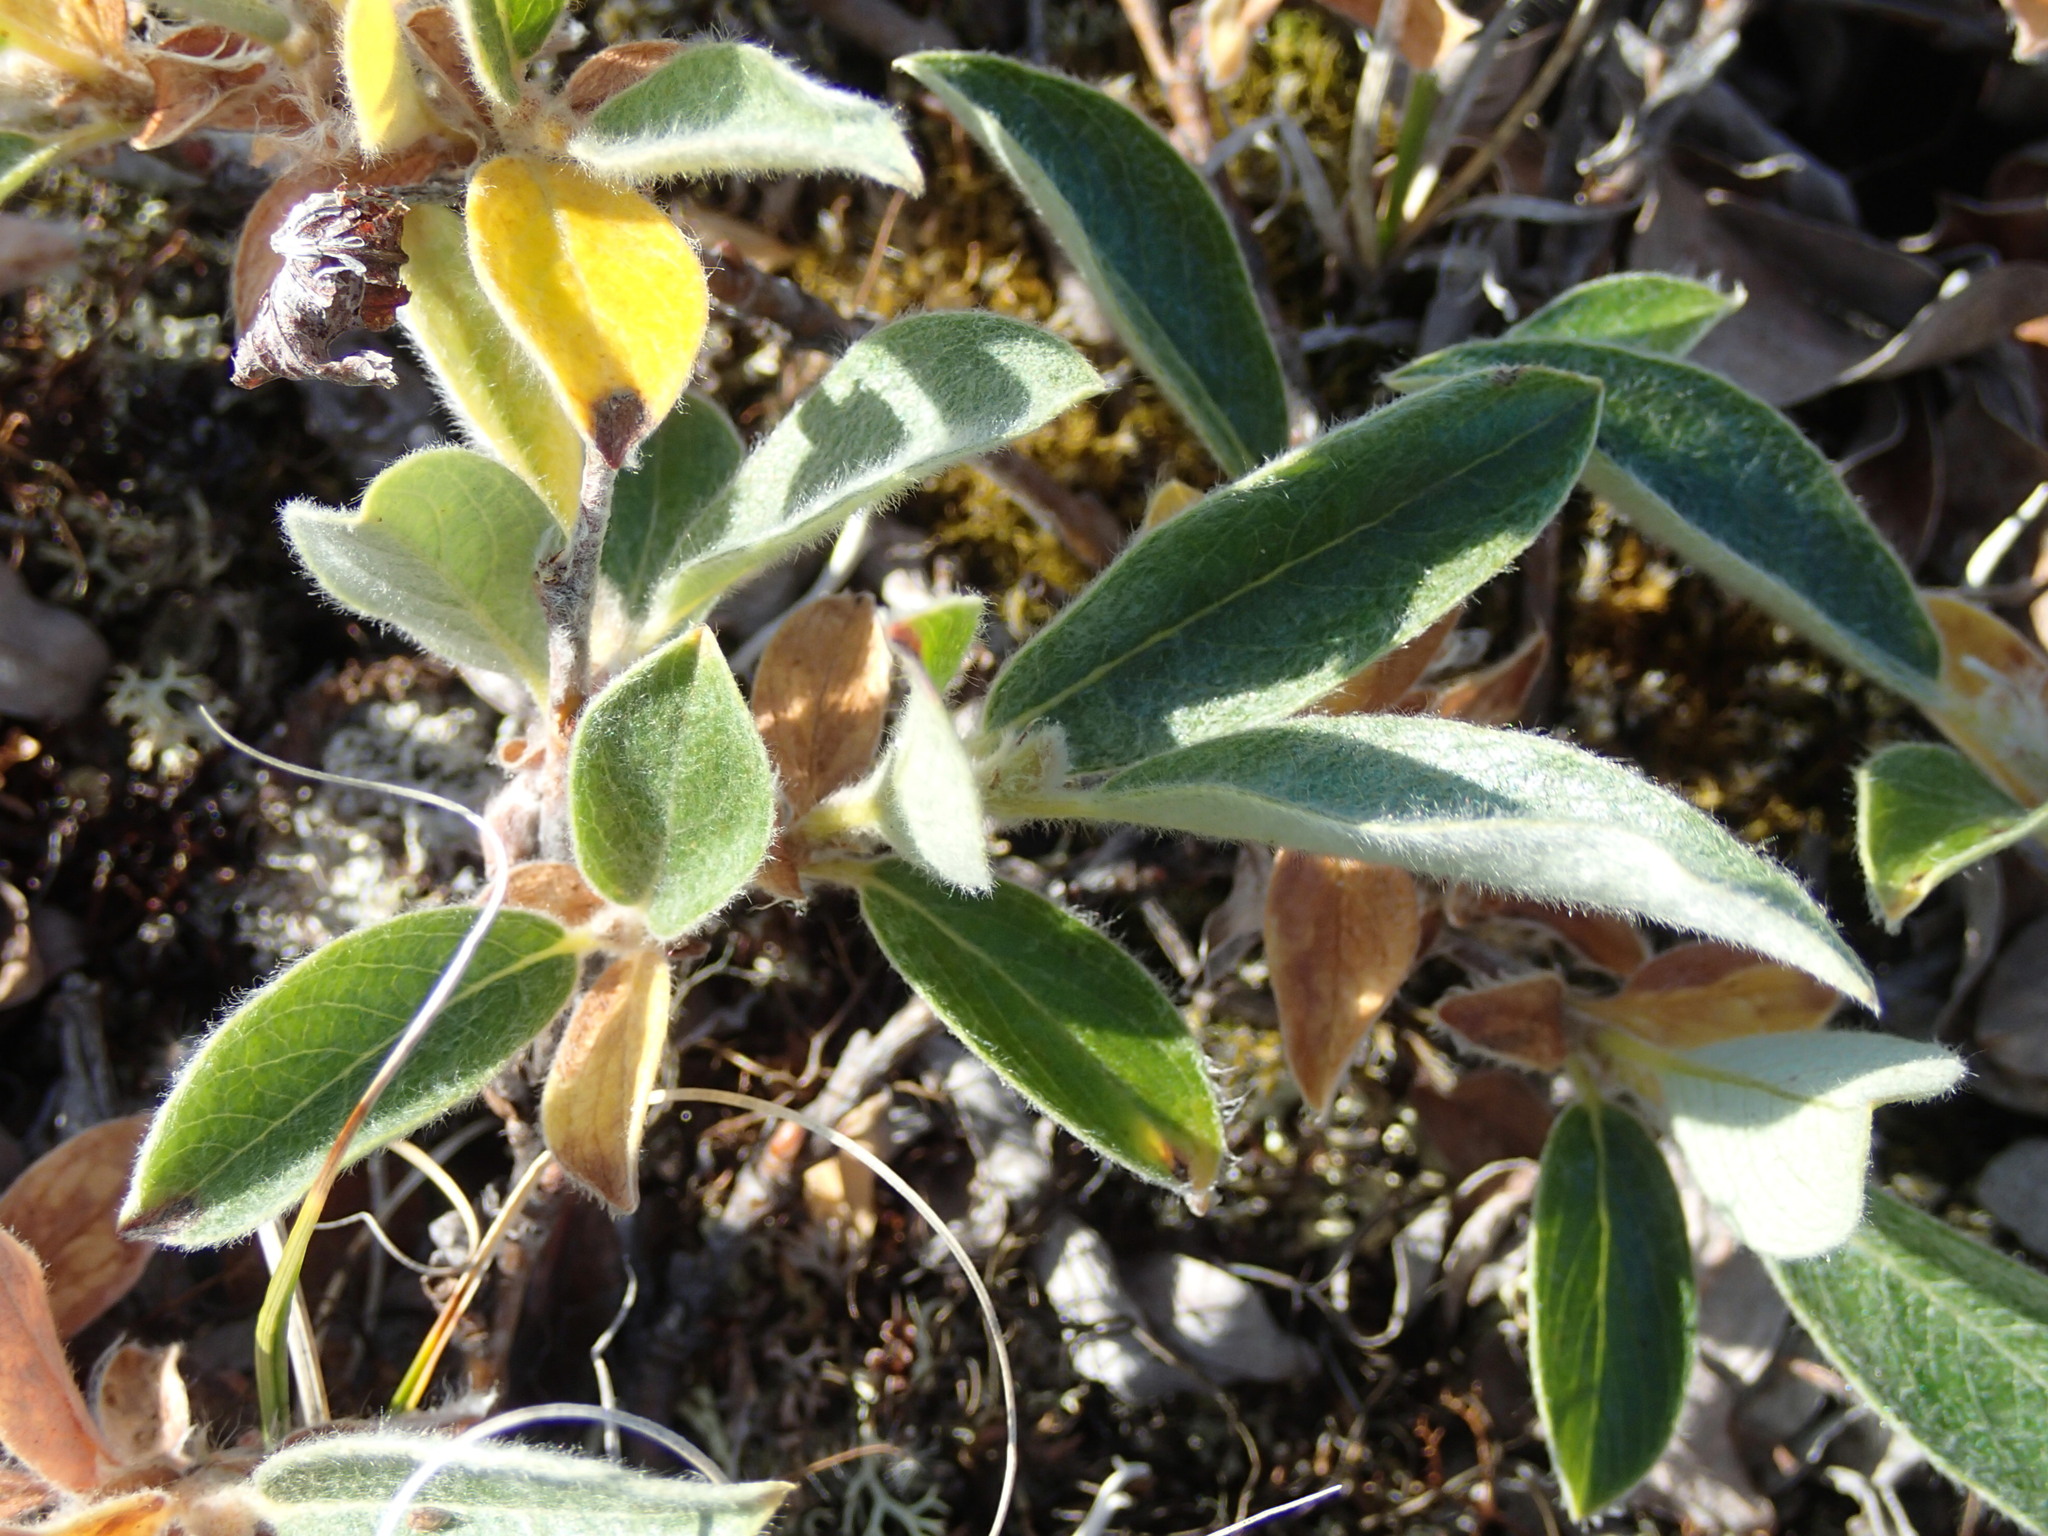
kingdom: Plantae
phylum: Tracheophyta
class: Magnoliopsida
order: Malpighiales
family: Salicaceae
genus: Salix
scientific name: Salix glauca
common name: Glaucous willow
